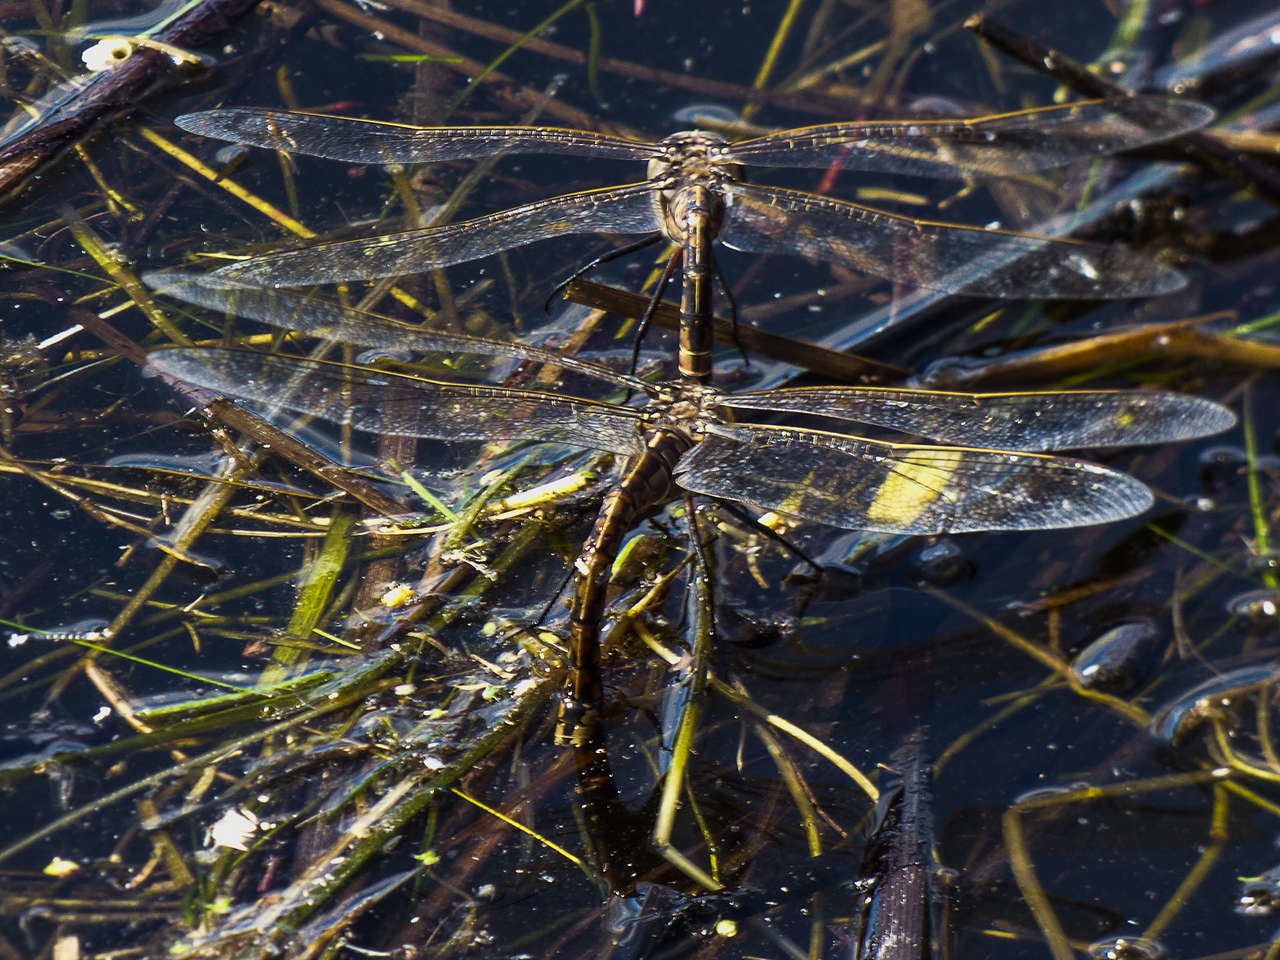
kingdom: Animalia
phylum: Arthropoda
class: Insecta
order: Odonata
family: Aeshnidae
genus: Anax
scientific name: Anax papuensis
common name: Australian emperor
